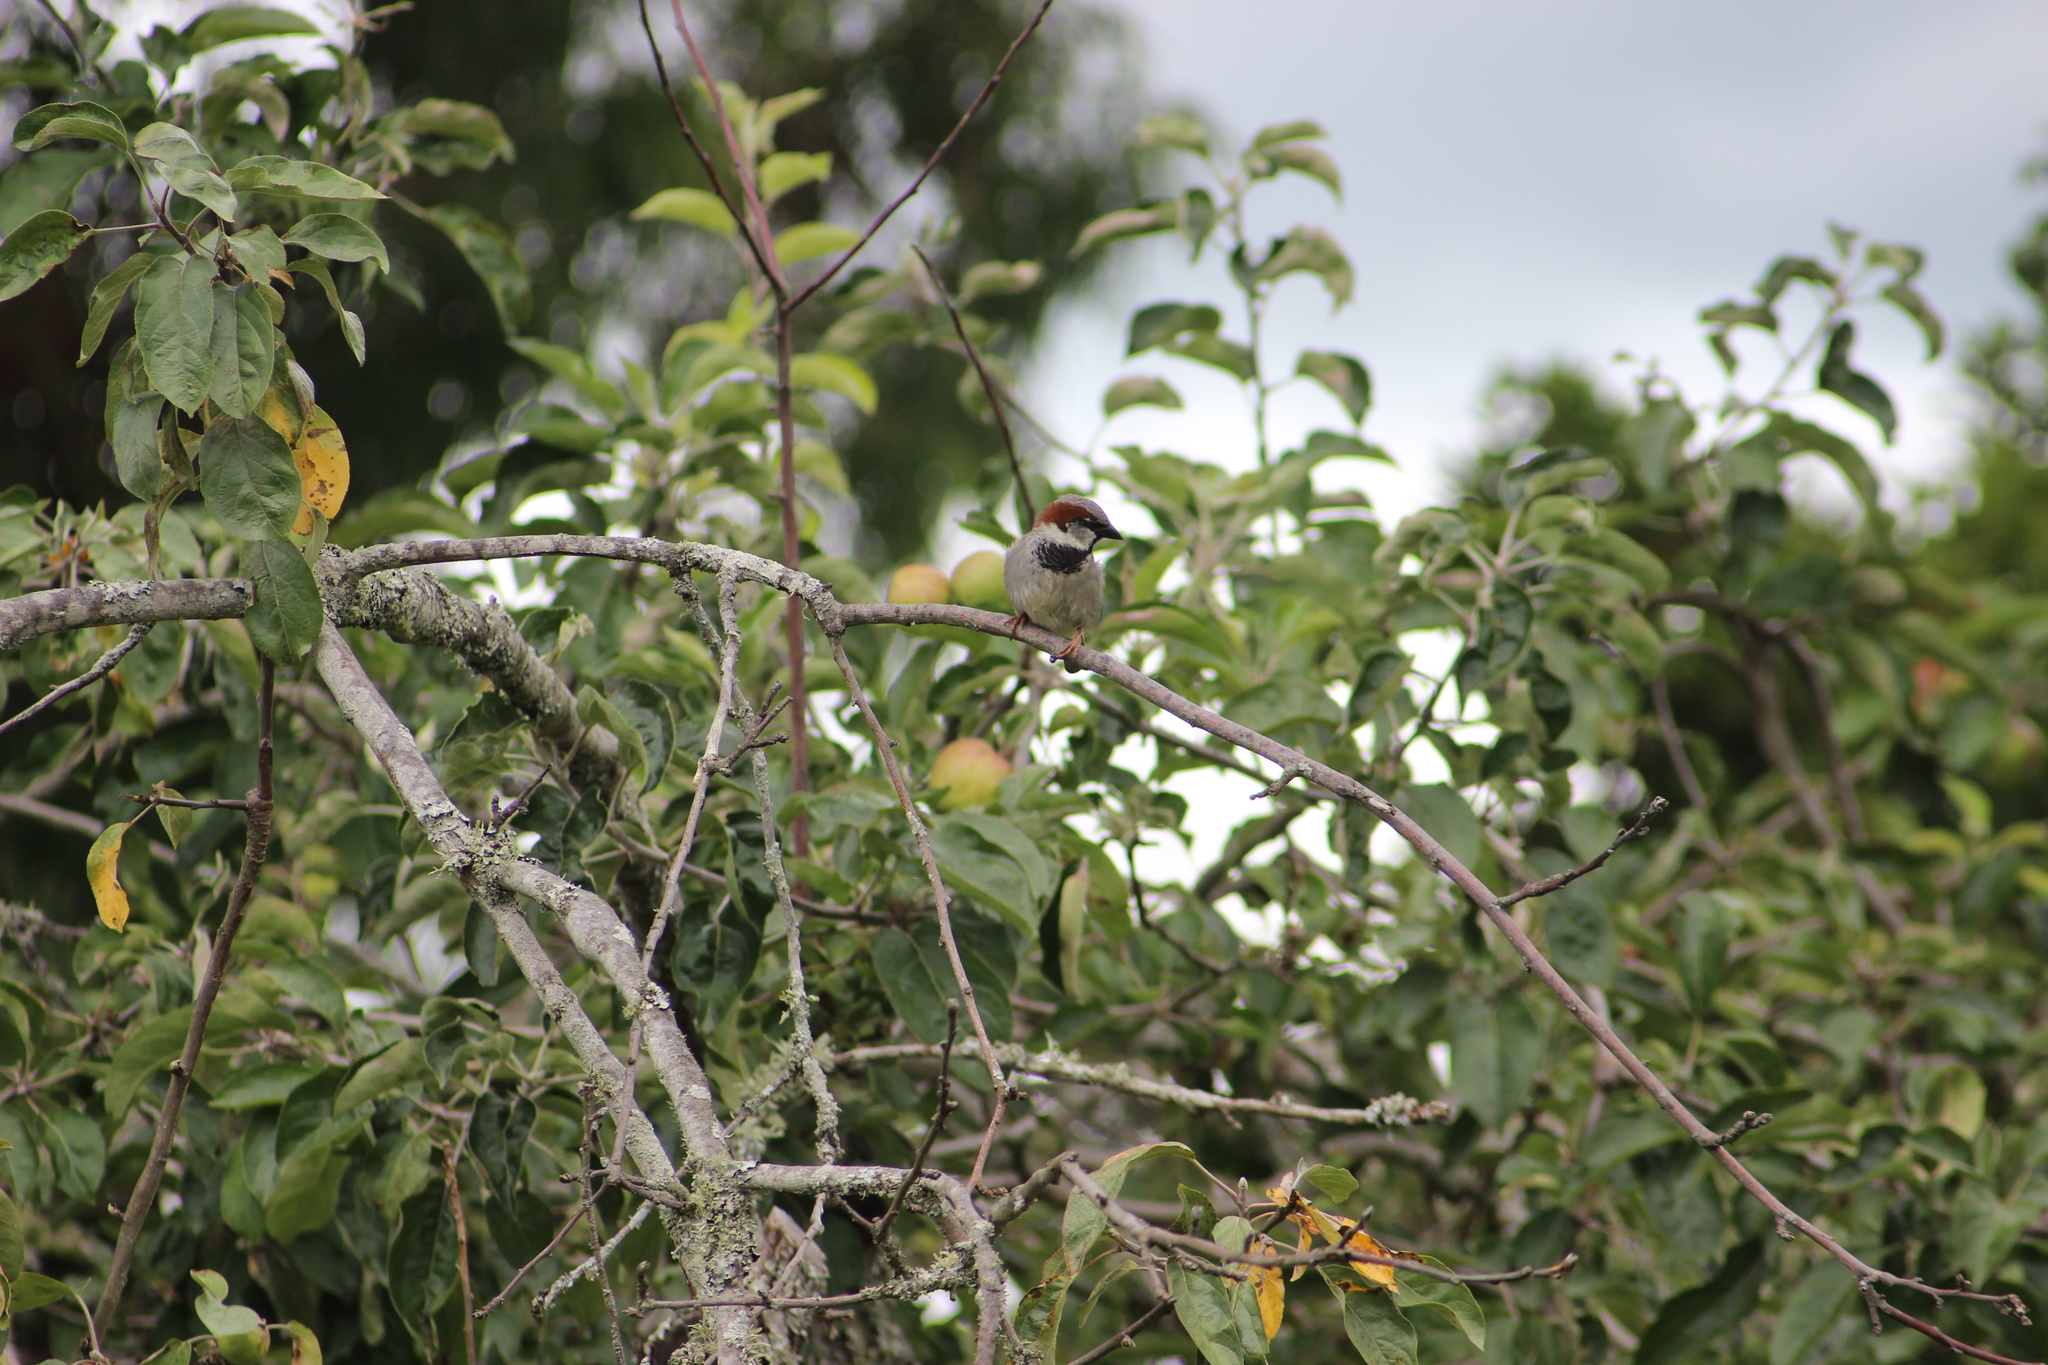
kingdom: Animalia
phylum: Chordata
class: Aves
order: Passeriformes
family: Passeridae
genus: Passer
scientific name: Passer domesticus
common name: House sparrow
